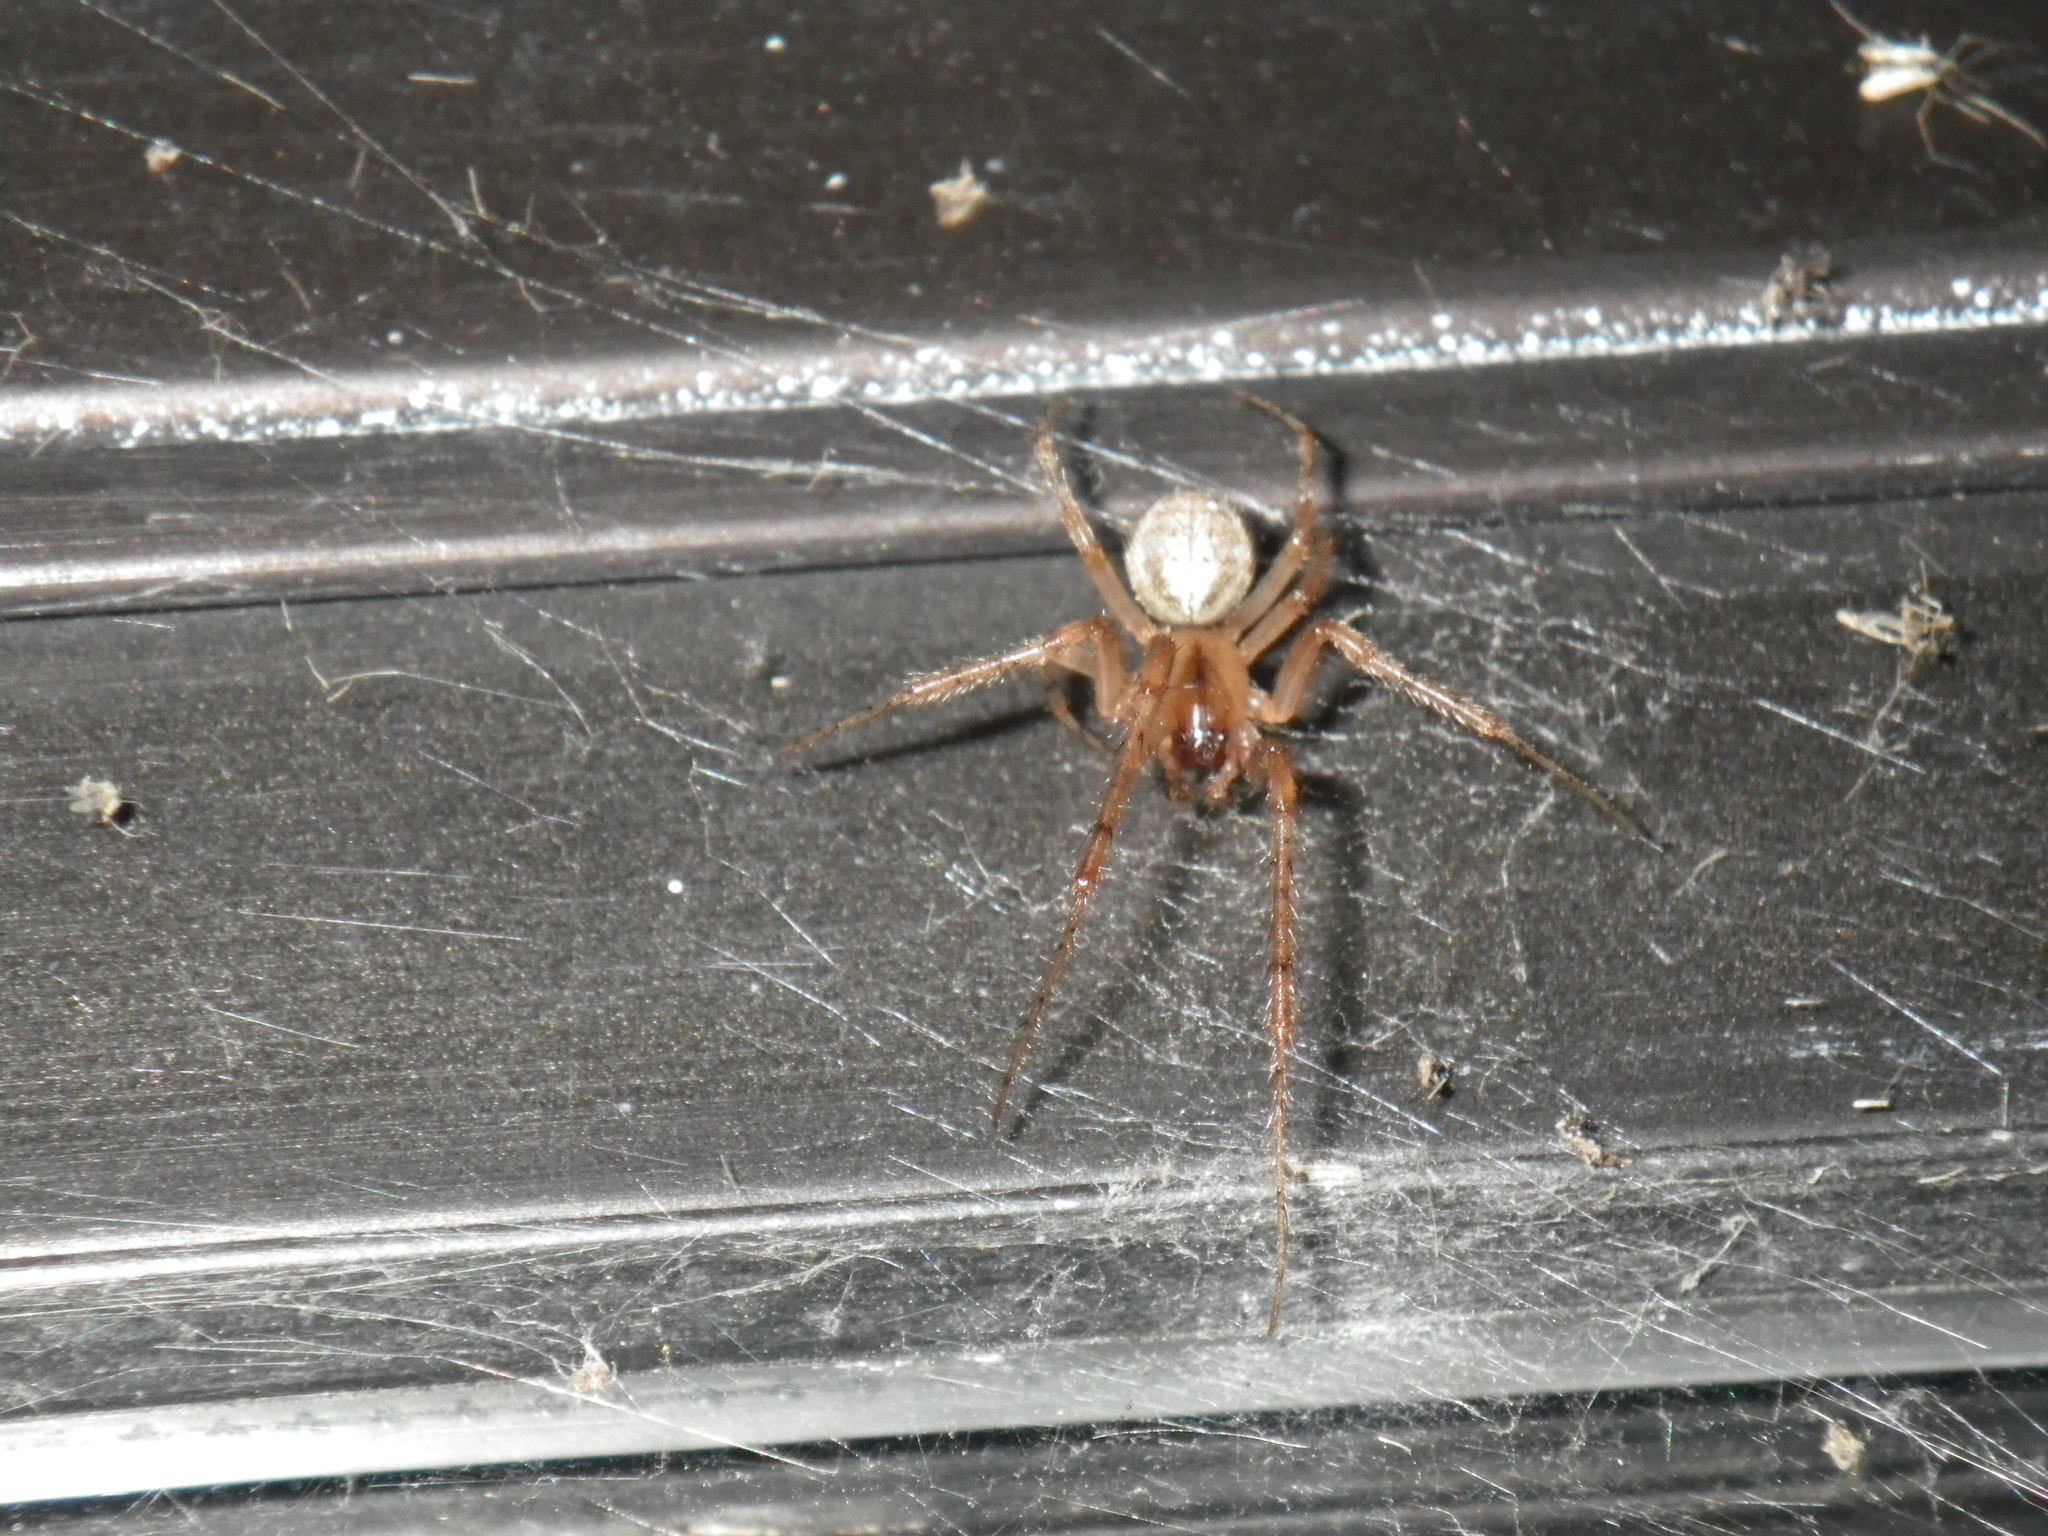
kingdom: Animalia
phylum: Arthropoda
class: Arachnida
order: Araneae
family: Araneidae
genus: Zygiella
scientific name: Zygiella x-notata
